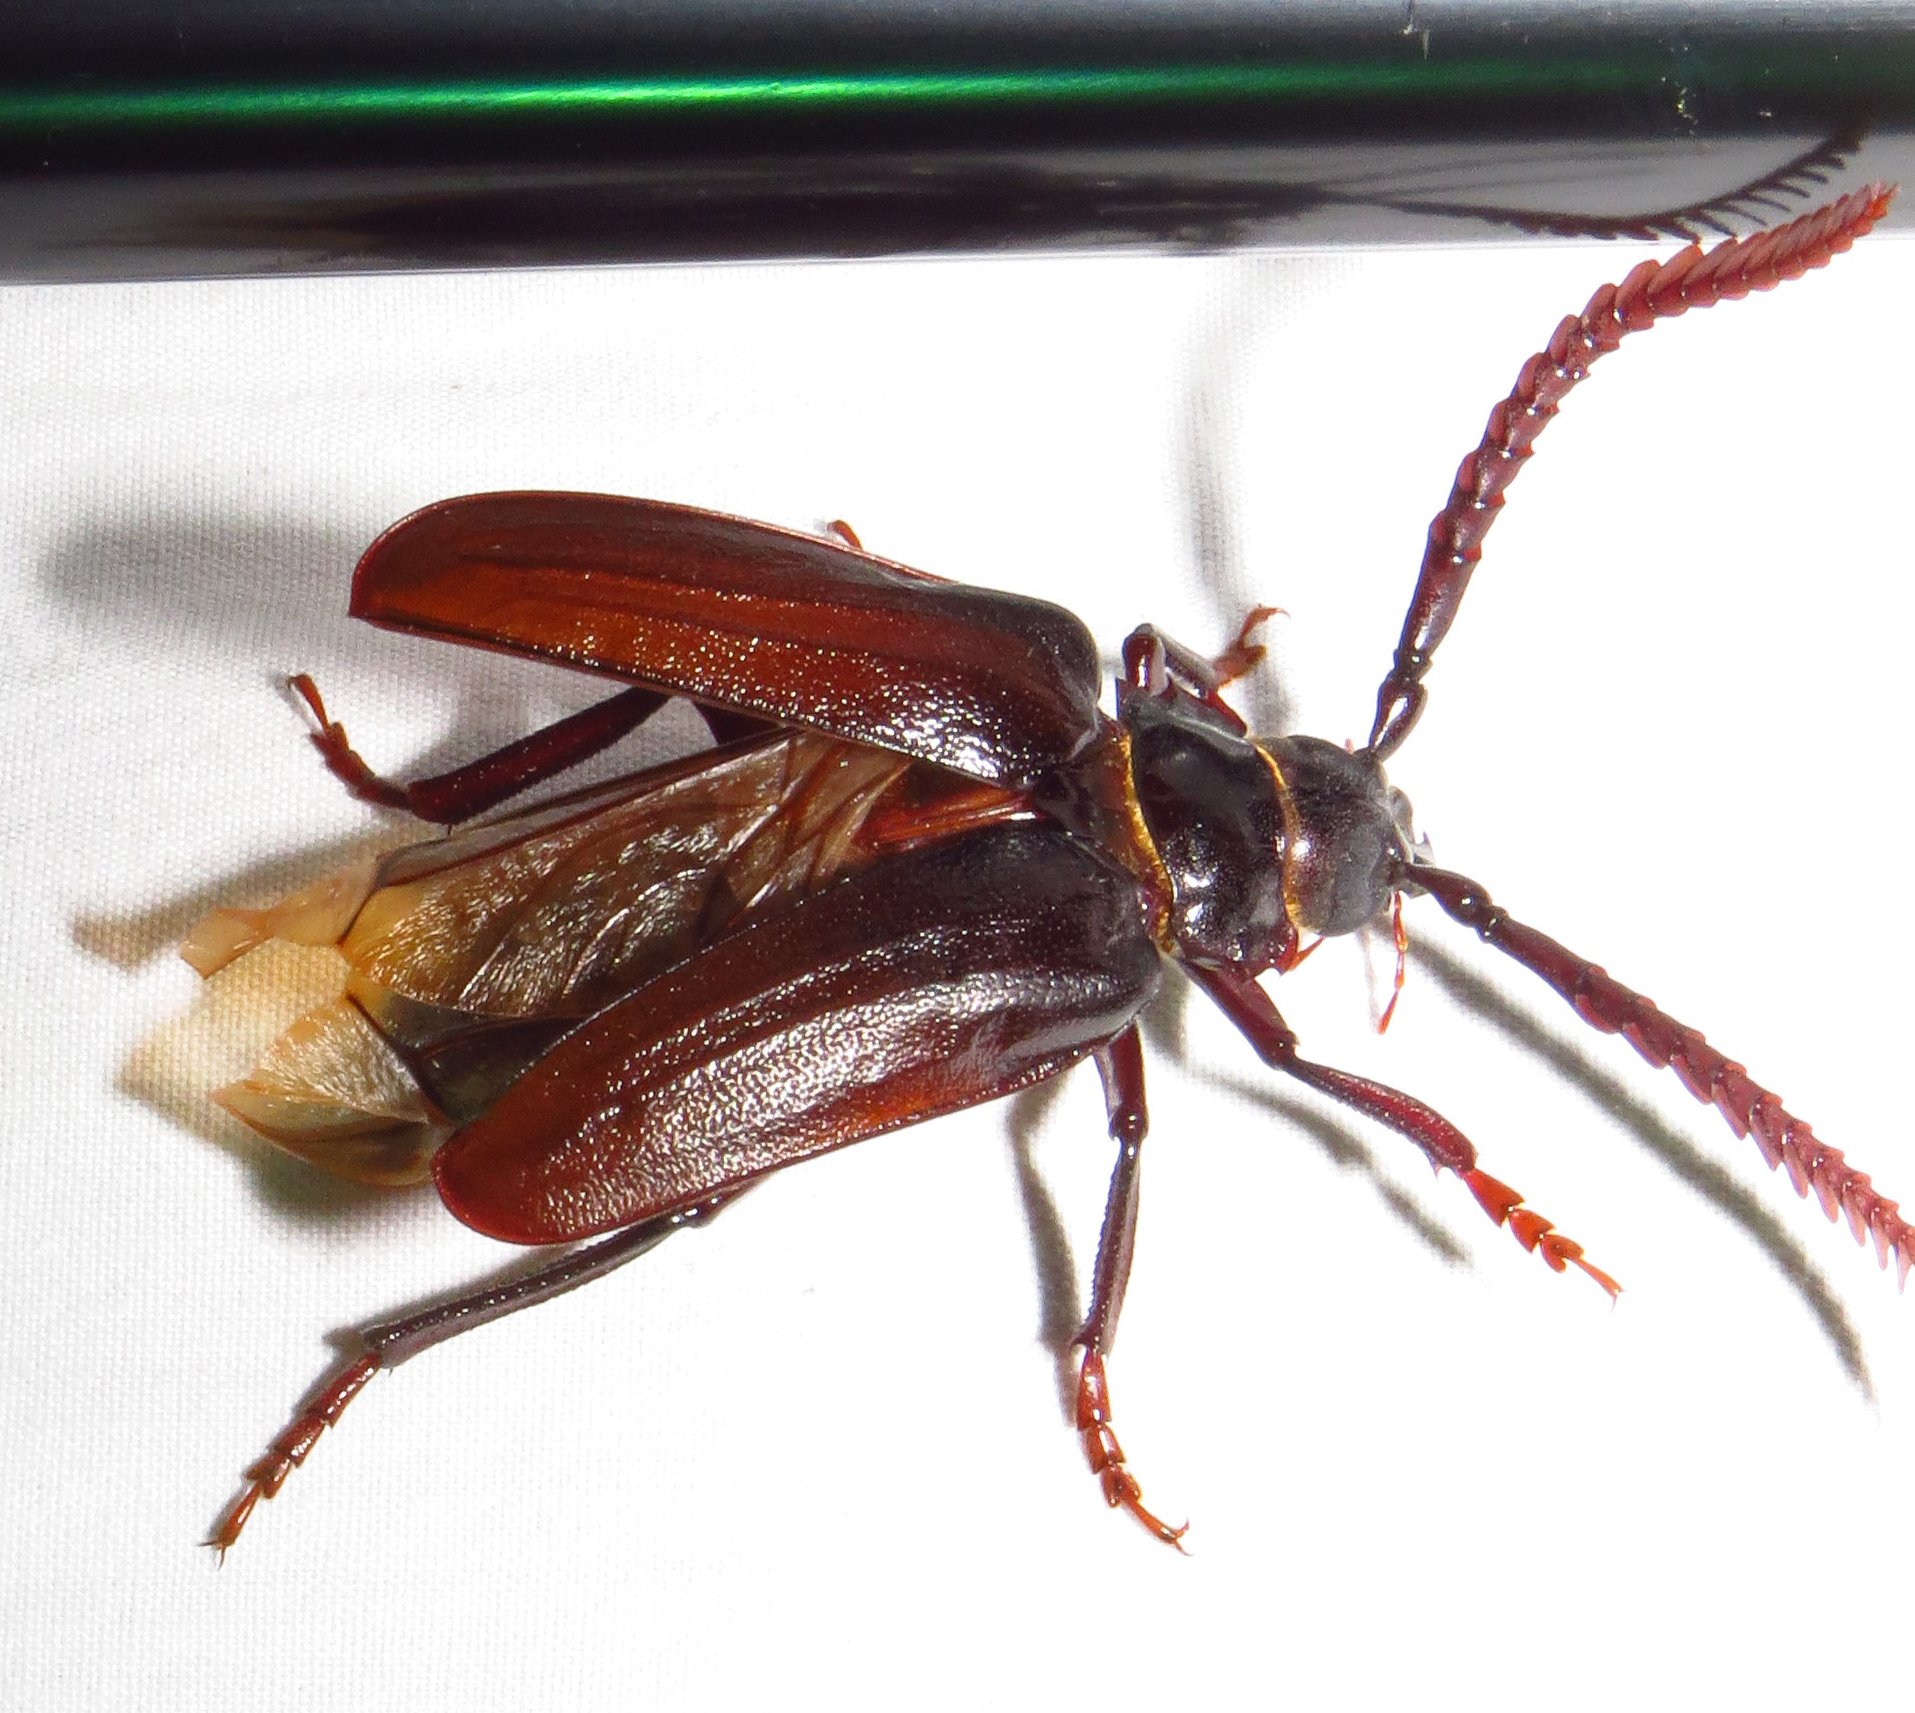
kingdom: Animalia
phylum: Arthropoda
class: Insecta
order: Coleoptera
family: Cerambycidae
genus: Prionus
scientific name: Prionus imbricornis
